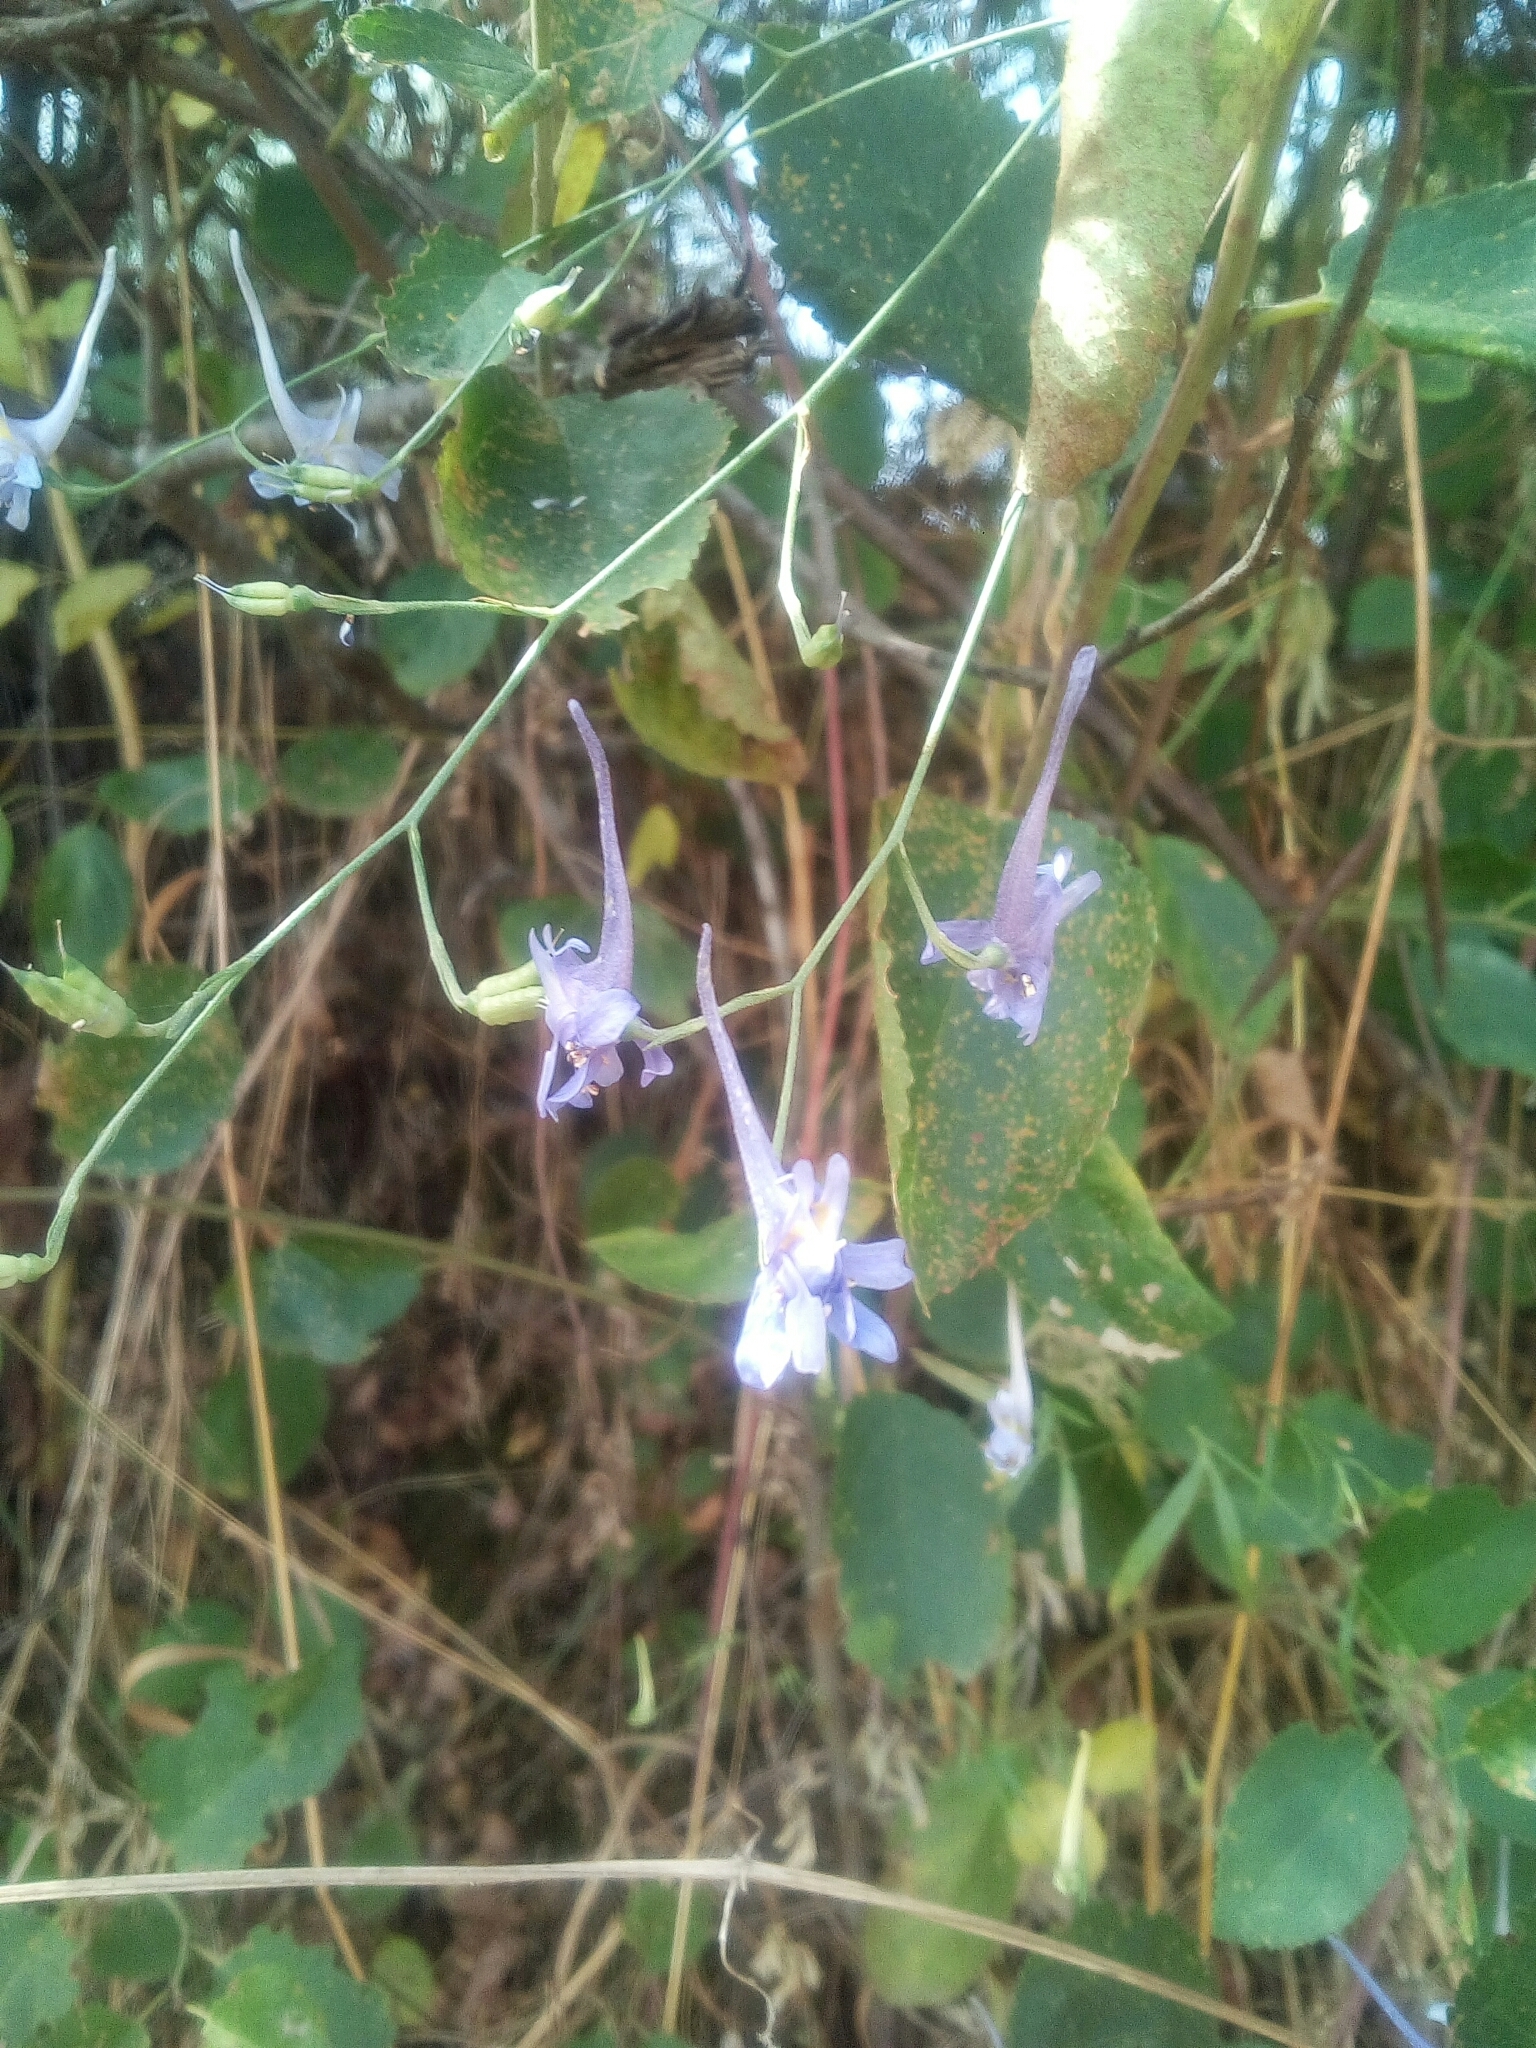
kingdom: Plantae
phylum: Tracheophyta
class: Magnoliopsida
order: Ranunculales
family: Ranunculaceae
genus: Delphinium
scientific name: Delphinium gracile
